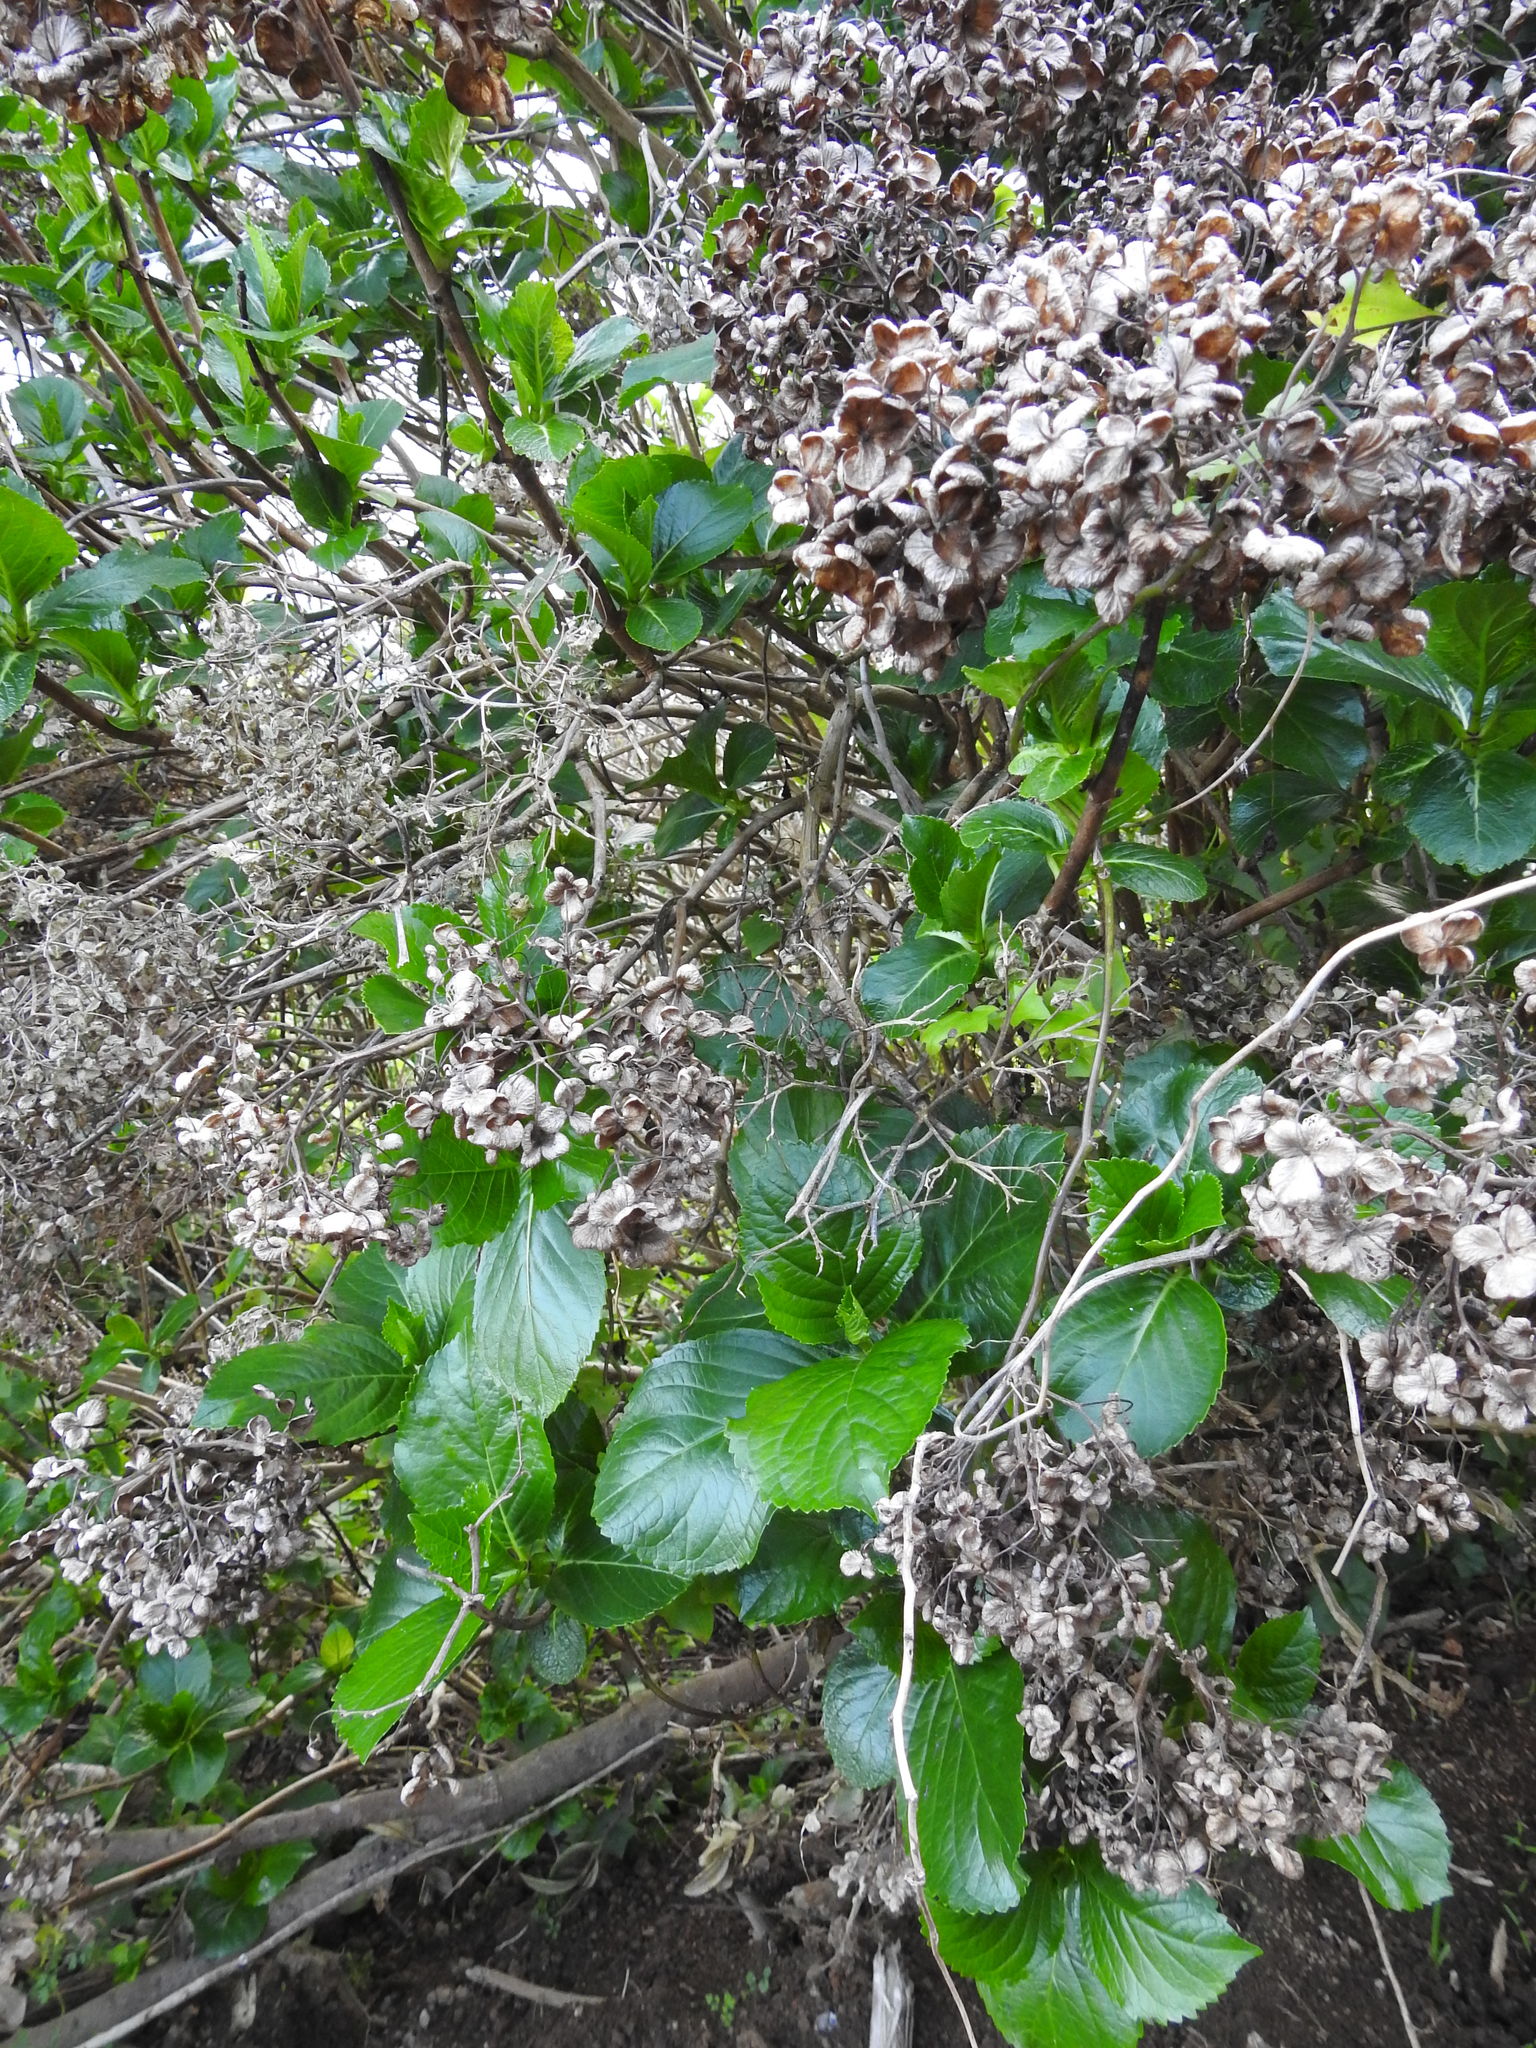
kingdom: Plantae
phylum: Tracheophyta
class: Magnoliopsida
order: Cornales
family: Hydrangeaceae
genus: Hydrangea
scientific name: Hydrangea macrophylla
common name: Hydrangea
